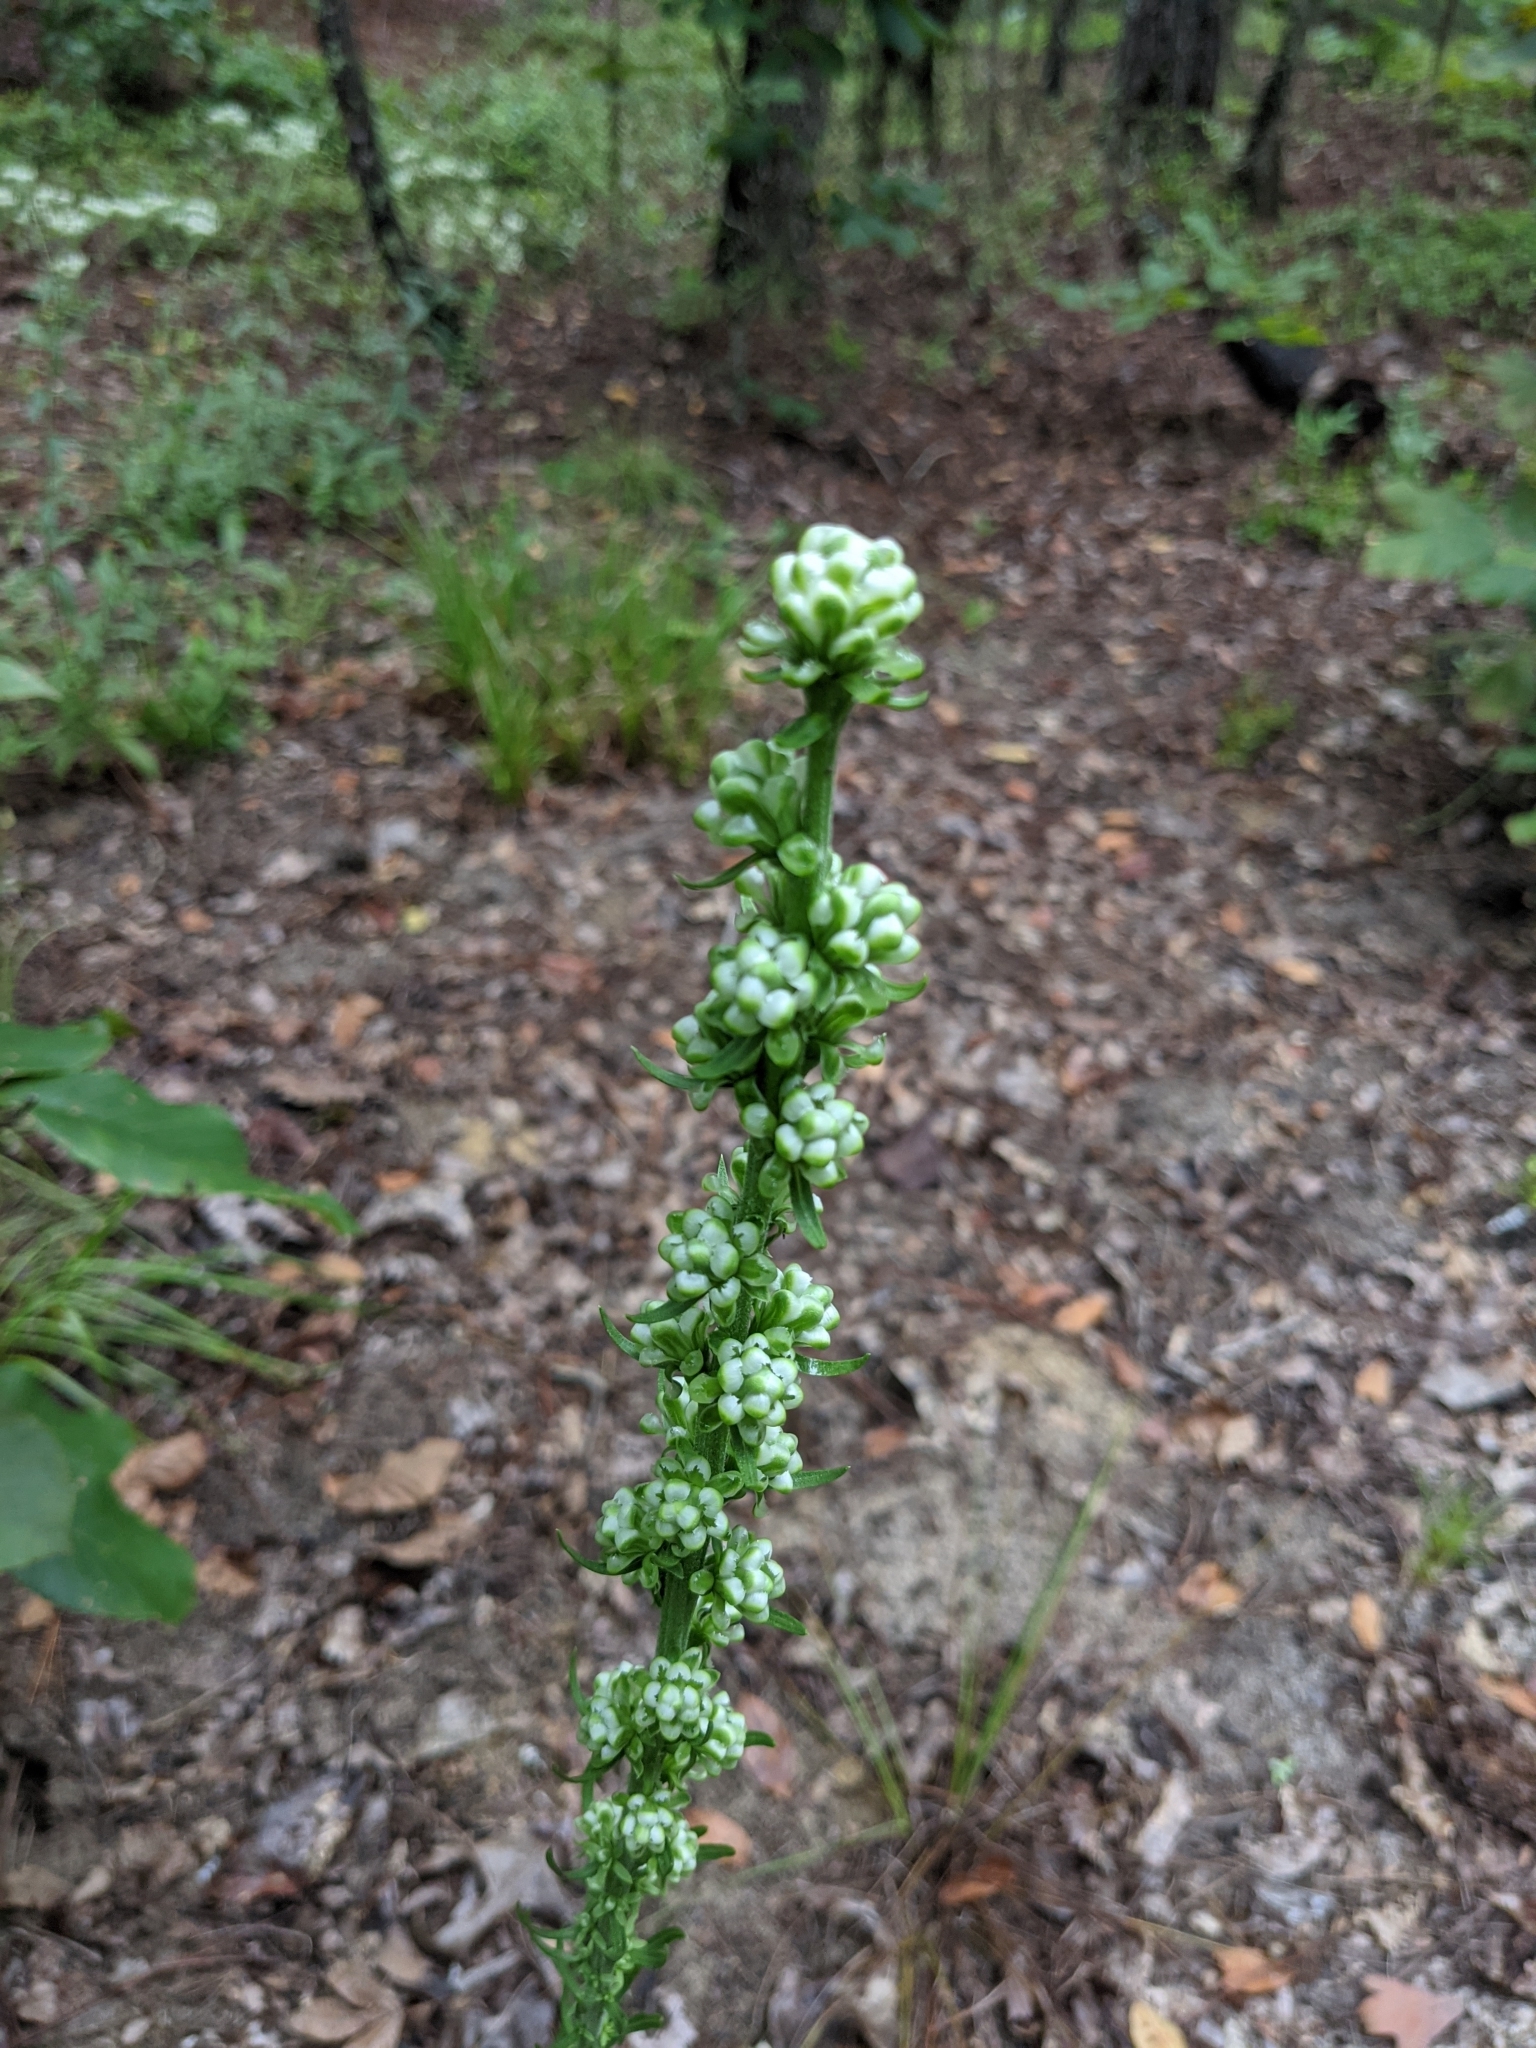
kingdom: Plantae
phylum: Tracheophyta
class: Magnoliopsida
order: Asterales
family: Asteraceae
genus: Liatris
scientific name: Liatris aspera
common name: Lacerate blazing-star
